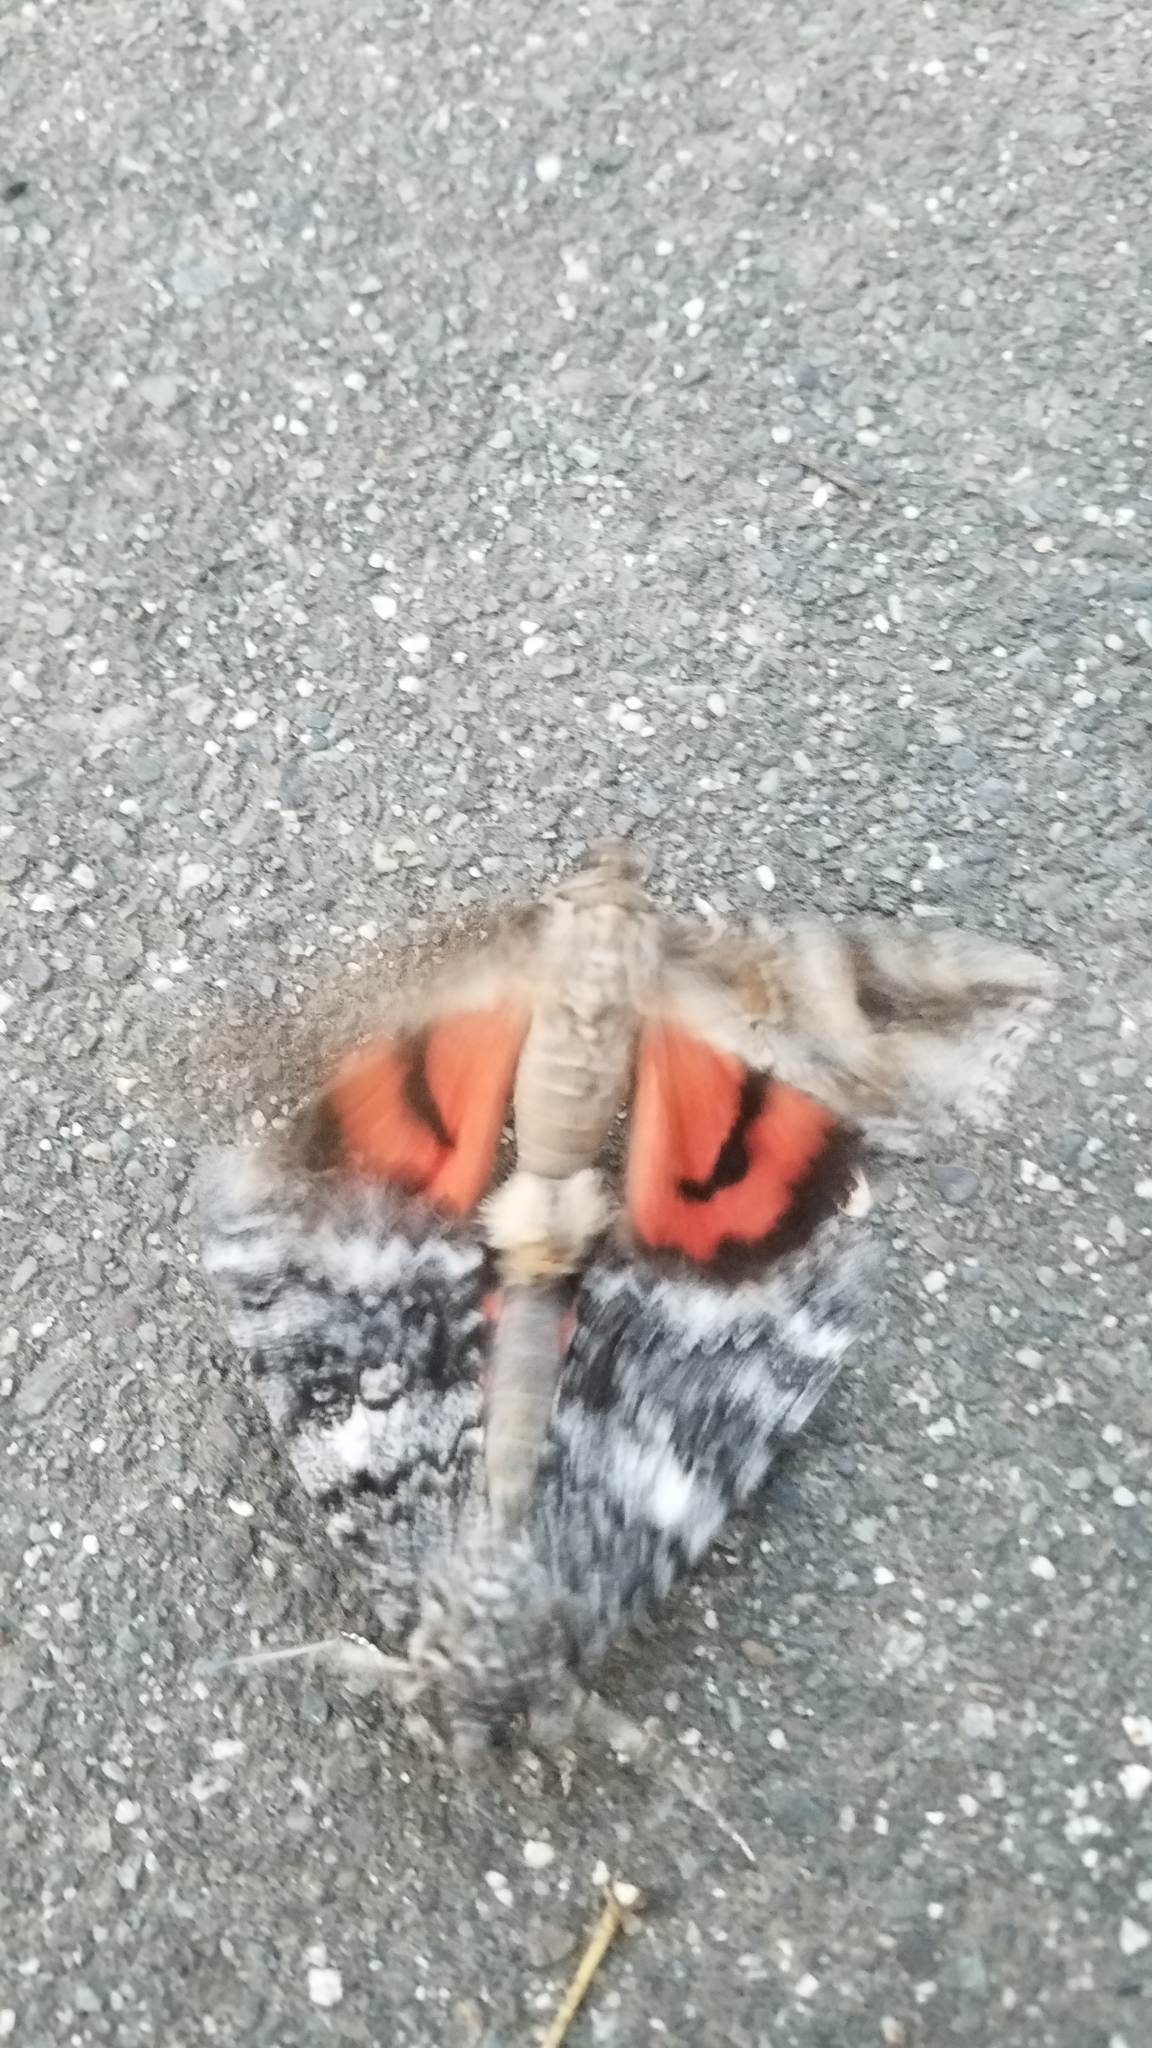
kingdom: Animalia
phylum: Arthropoda
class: Insecta
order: Lepidoptera
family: Erebidae
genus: Catocala
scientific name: Catocala irene
